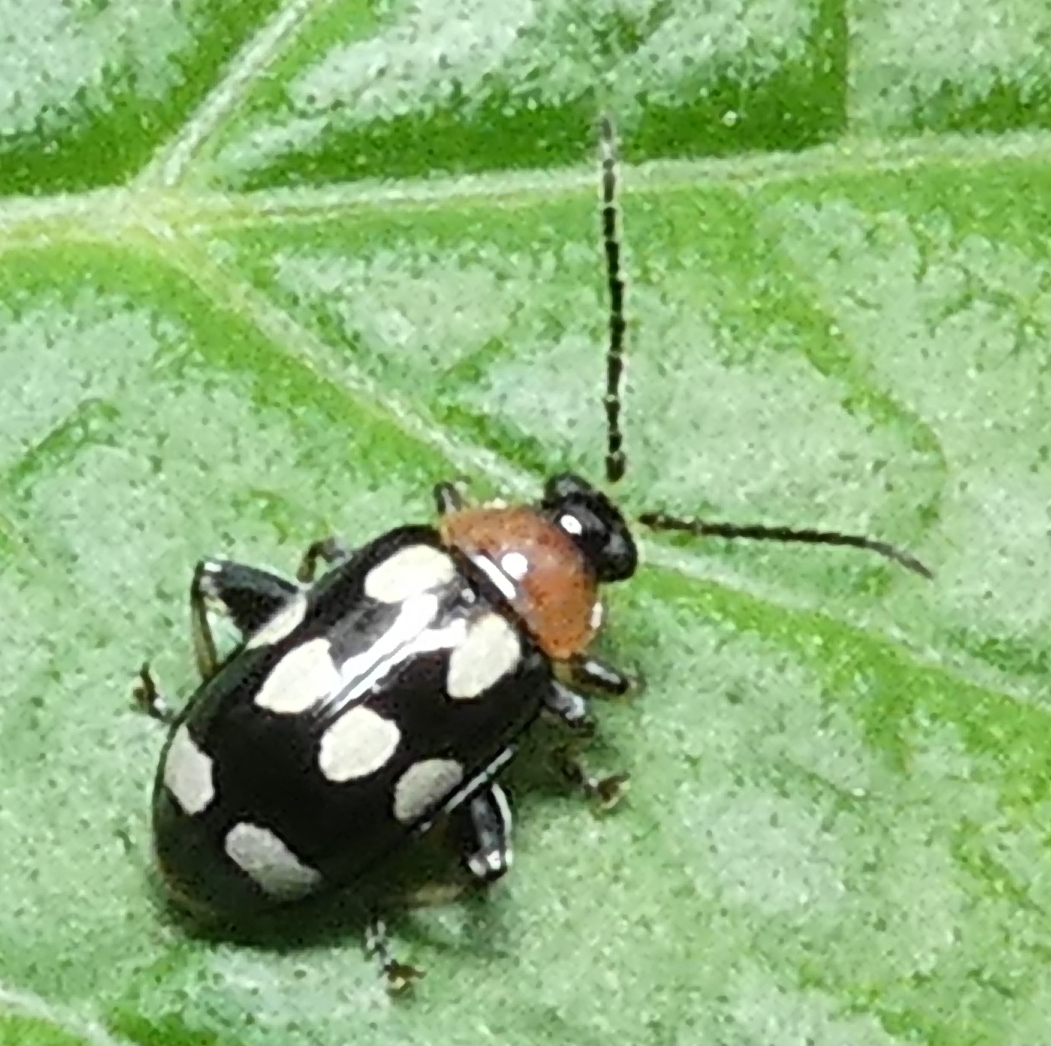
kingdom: Animalia
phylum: Arthropoda
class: Insecta
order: Coleoptera
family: Chrysomelidae
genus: Phenrica
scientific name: Phenrica austriaca
